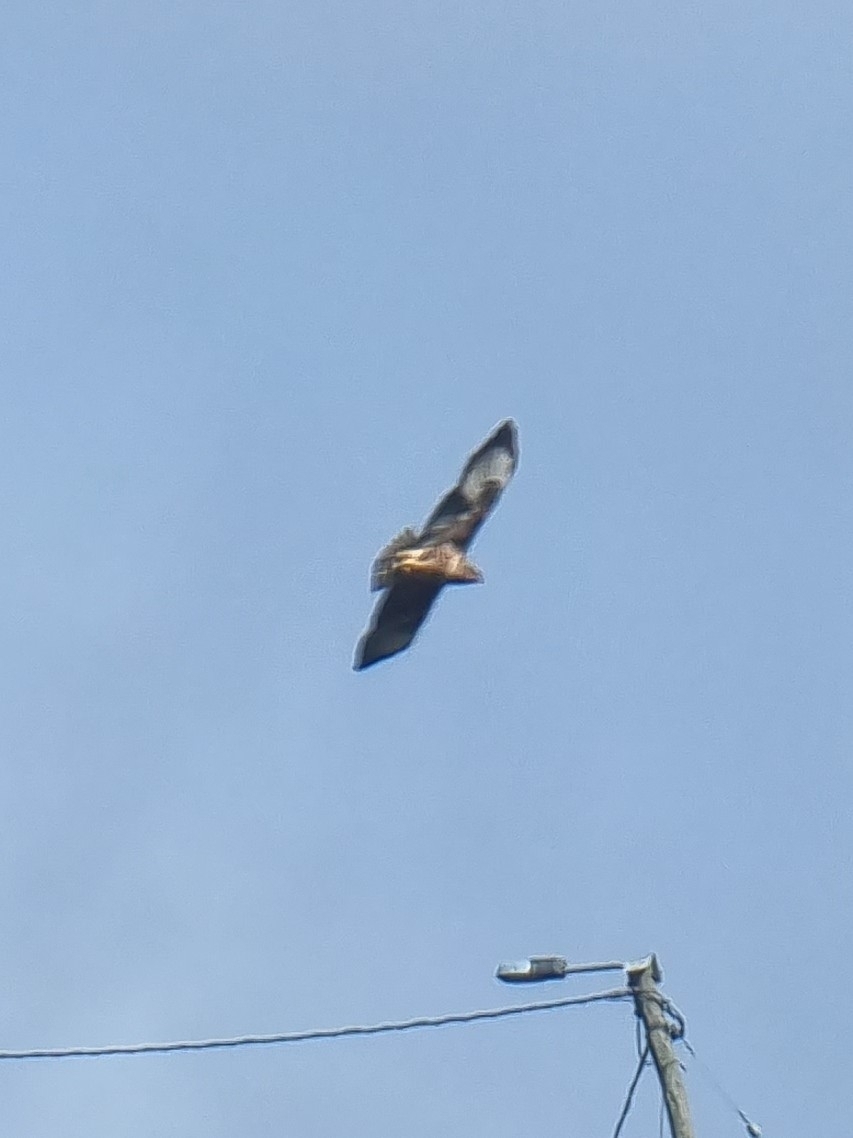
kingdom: Animalia
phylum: Chordata
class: Aves
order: Accipitriformes
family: Accipitridae
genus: Buteo
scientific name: Buteo buteo
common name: Common buzzard
